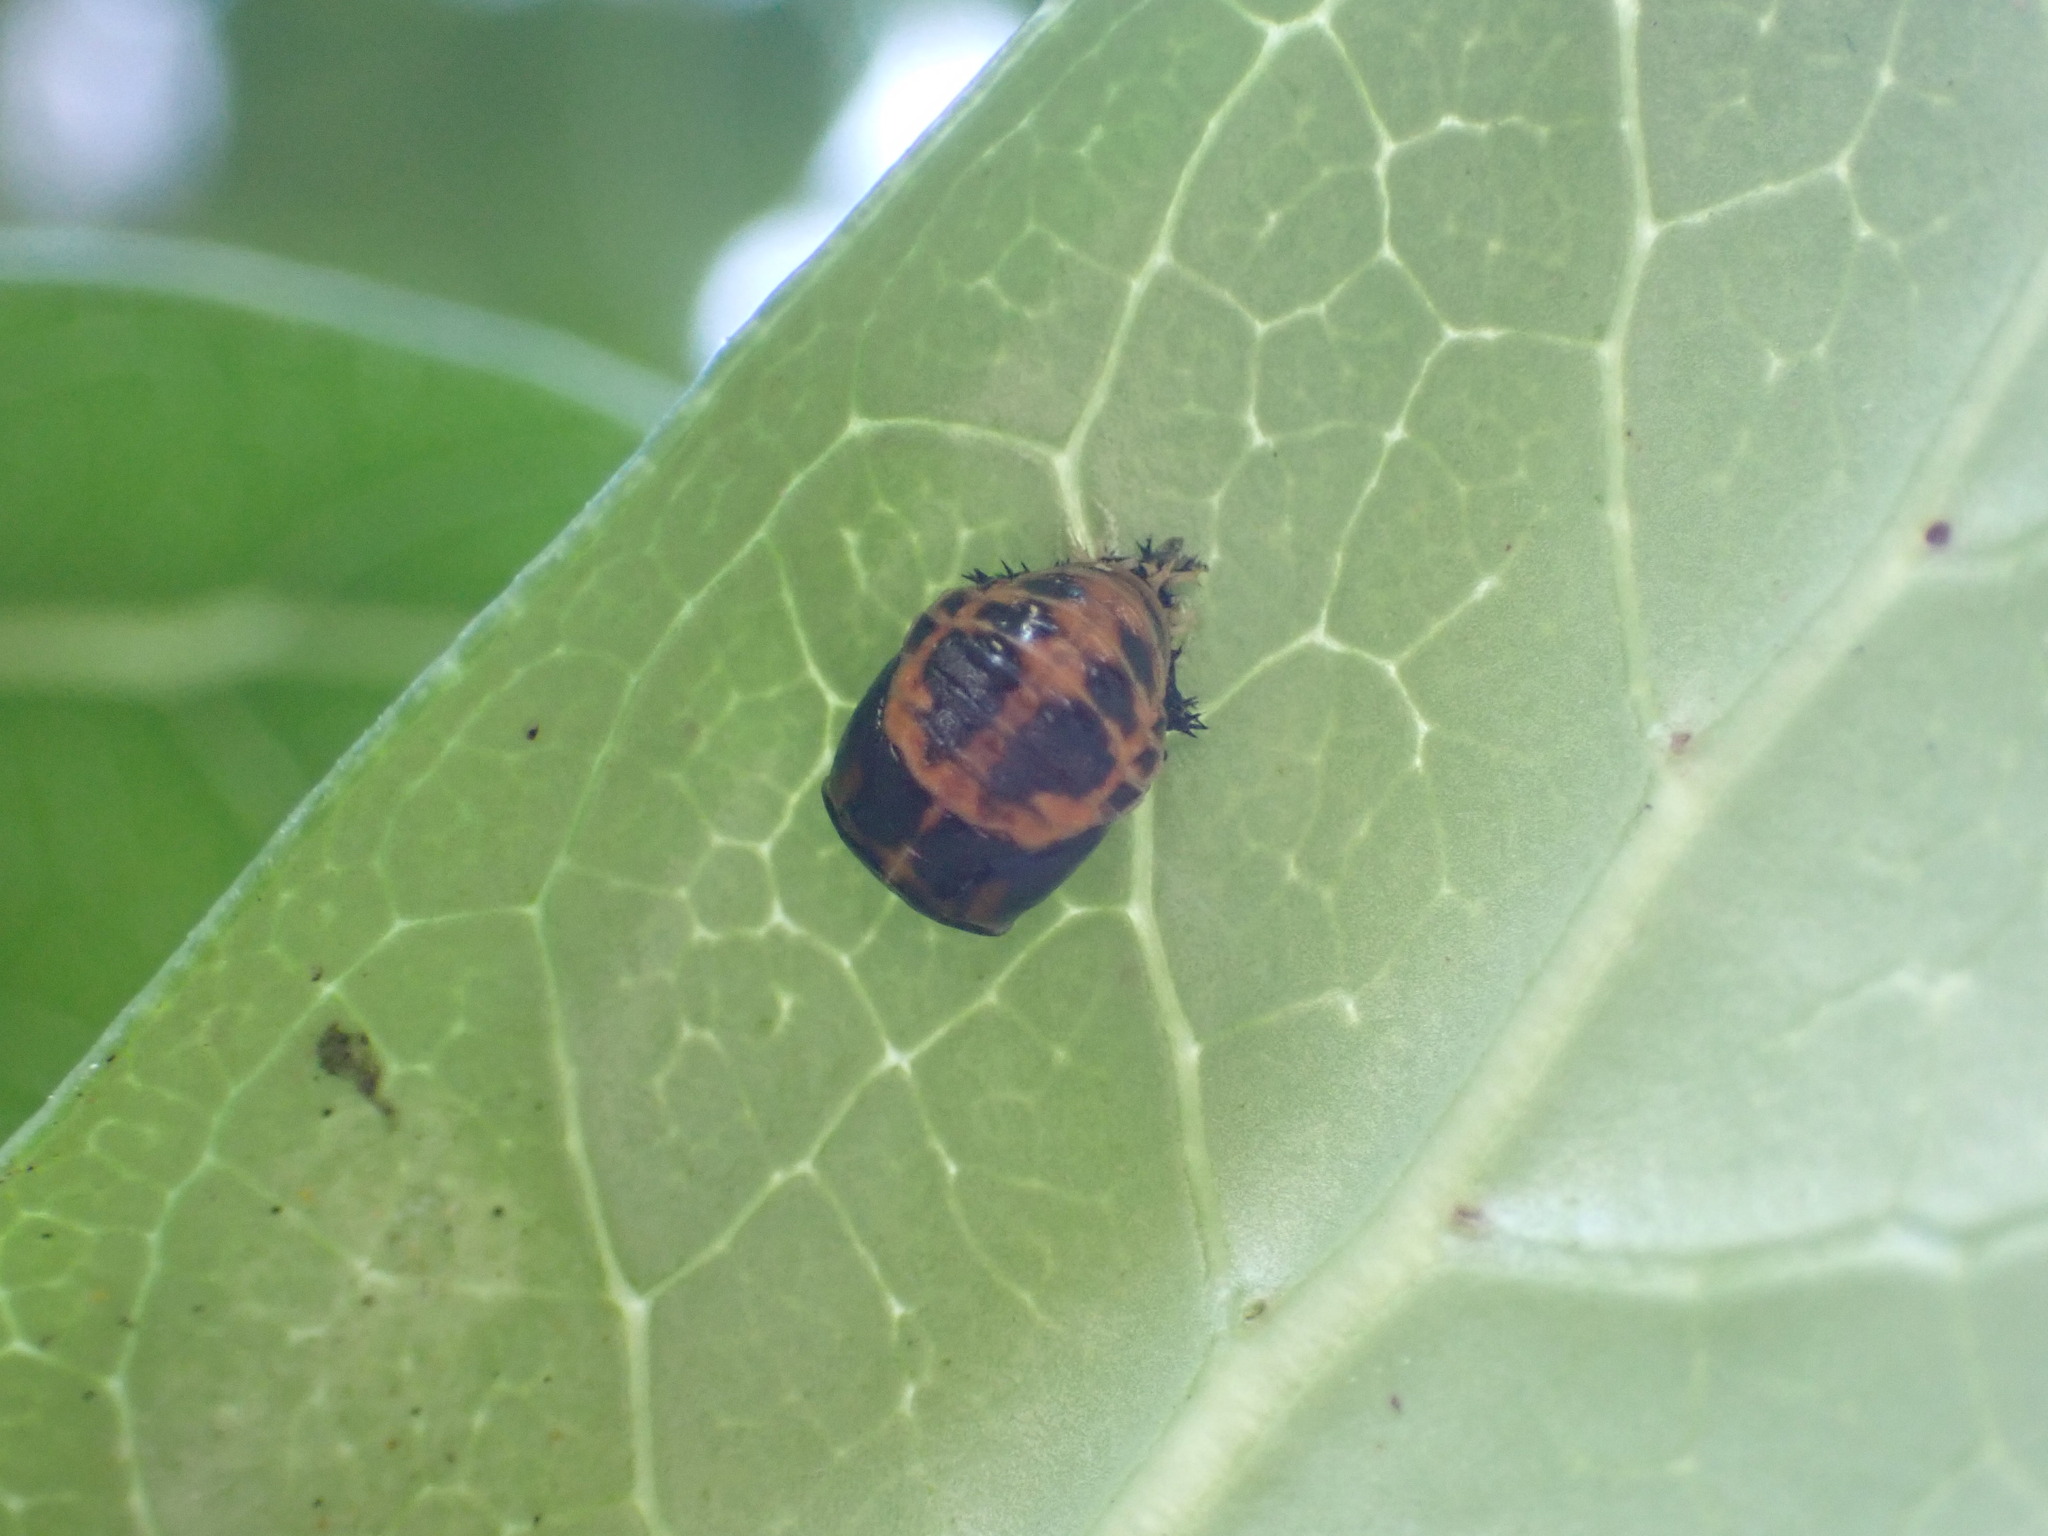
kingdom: Animalia
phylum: Arthropoda
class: Insecta
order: Coleoptera
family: Coccinellidae
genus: Harmonia
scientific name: Harmonia axyridis
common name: Harlequin ladybird
